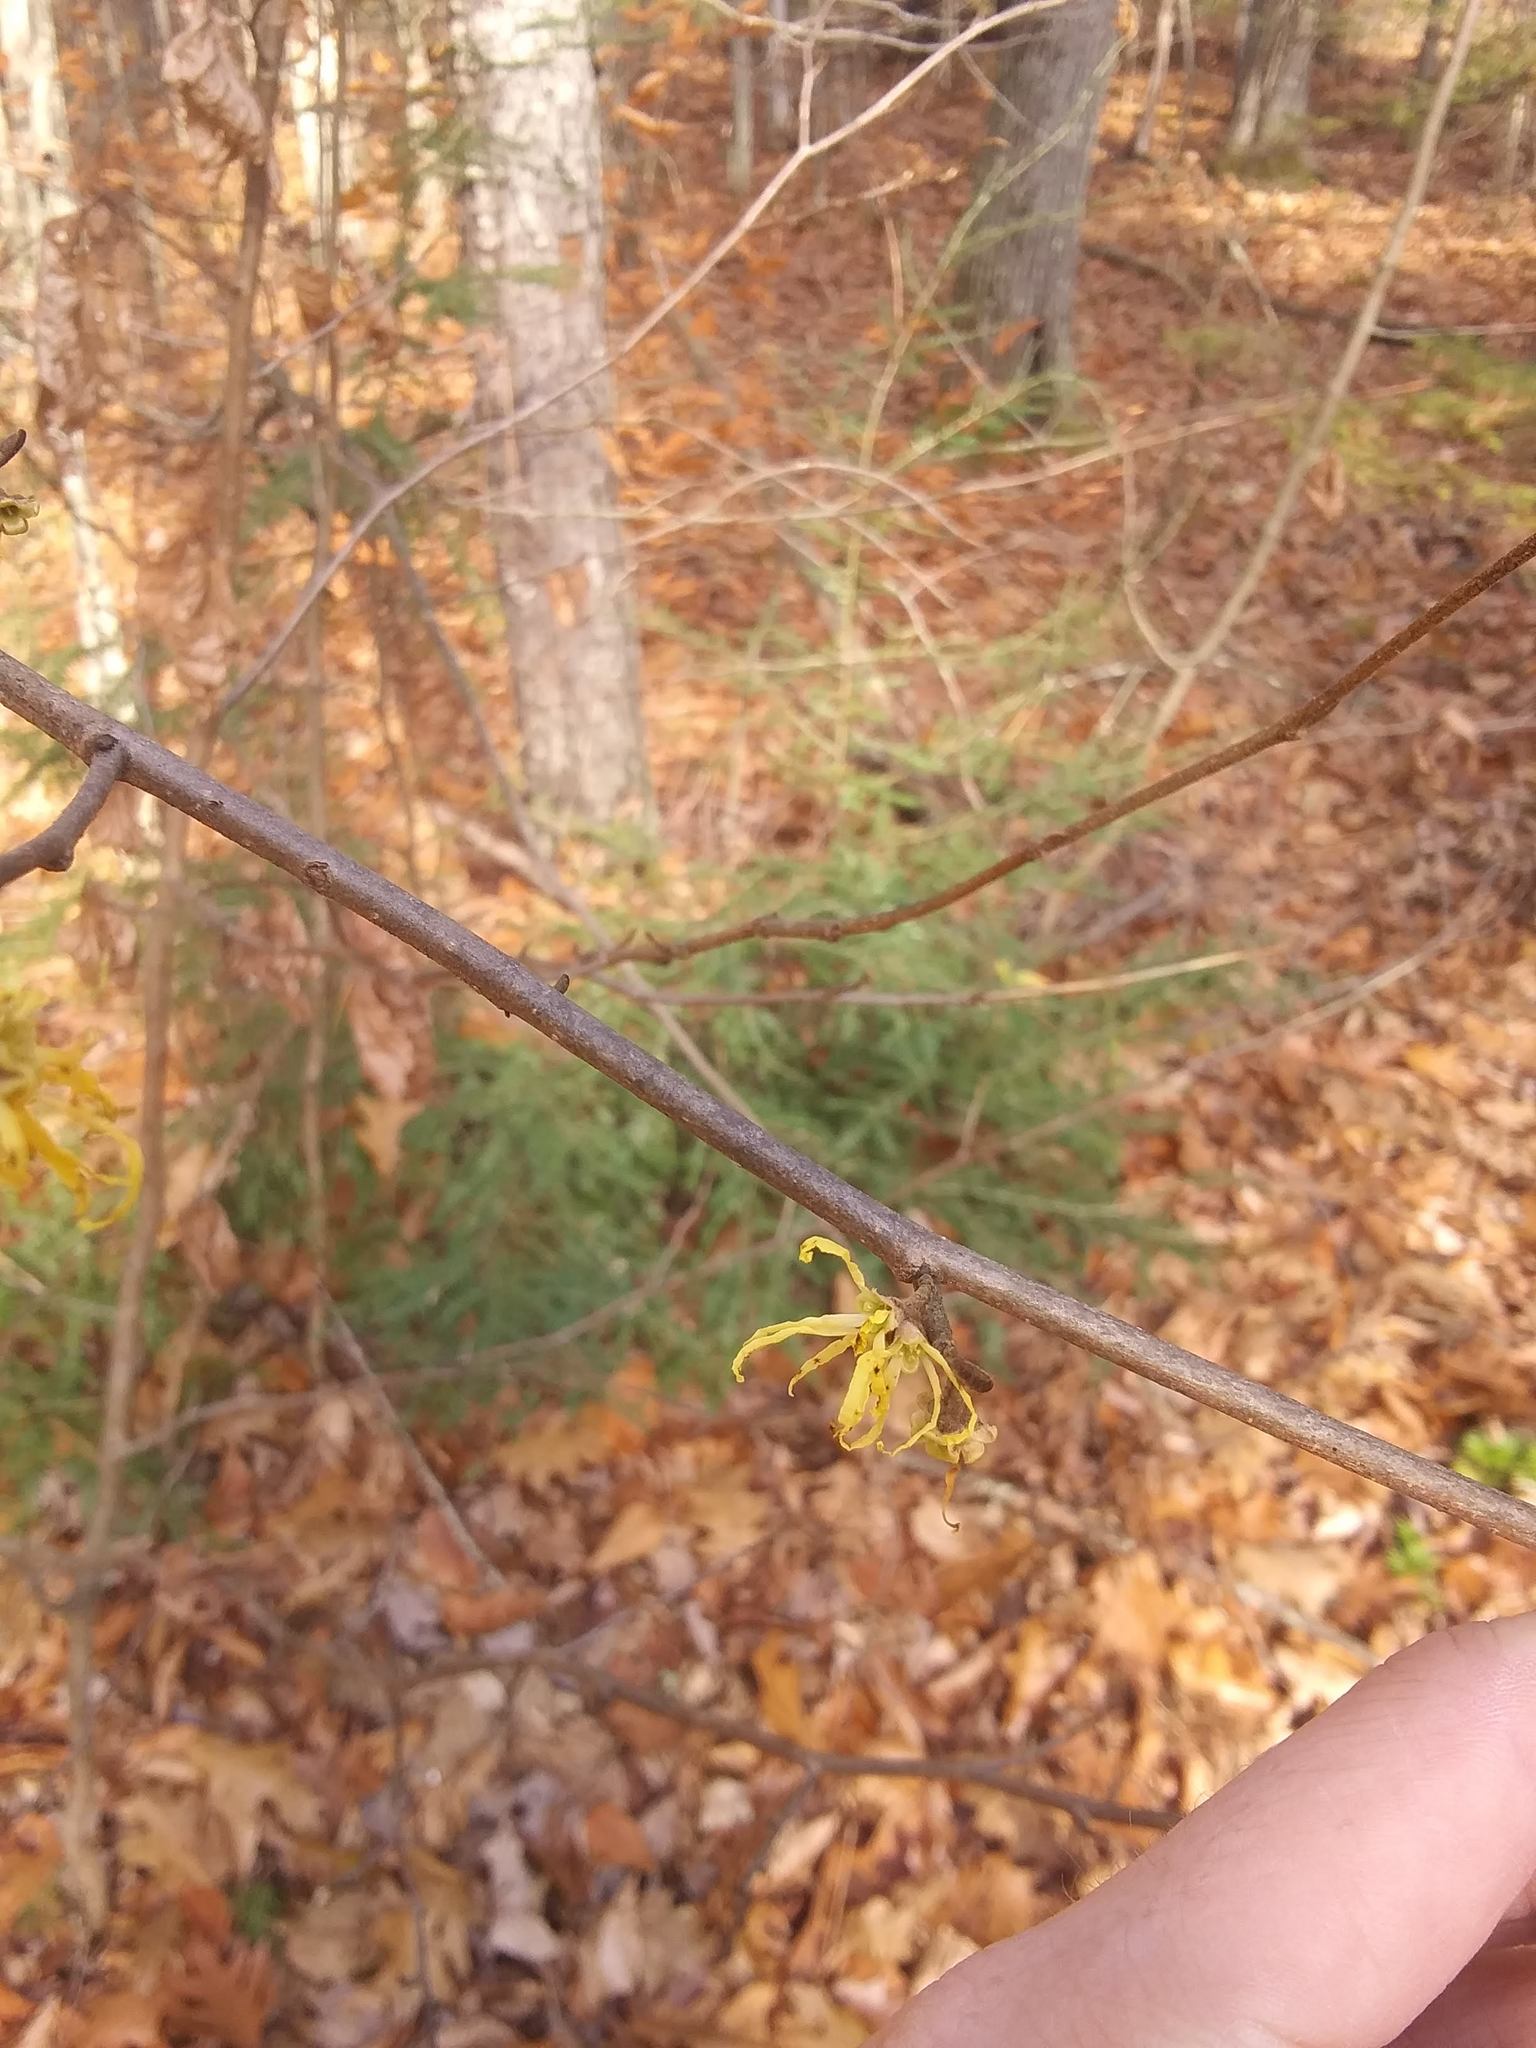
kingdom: Plantae
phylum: Tracheophyta
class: Magnoliopsida
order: Saxifragales
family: Hamamelidaceae
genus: Hamamelis
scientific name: Hamamelis virginiana
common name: Witch-hazel
